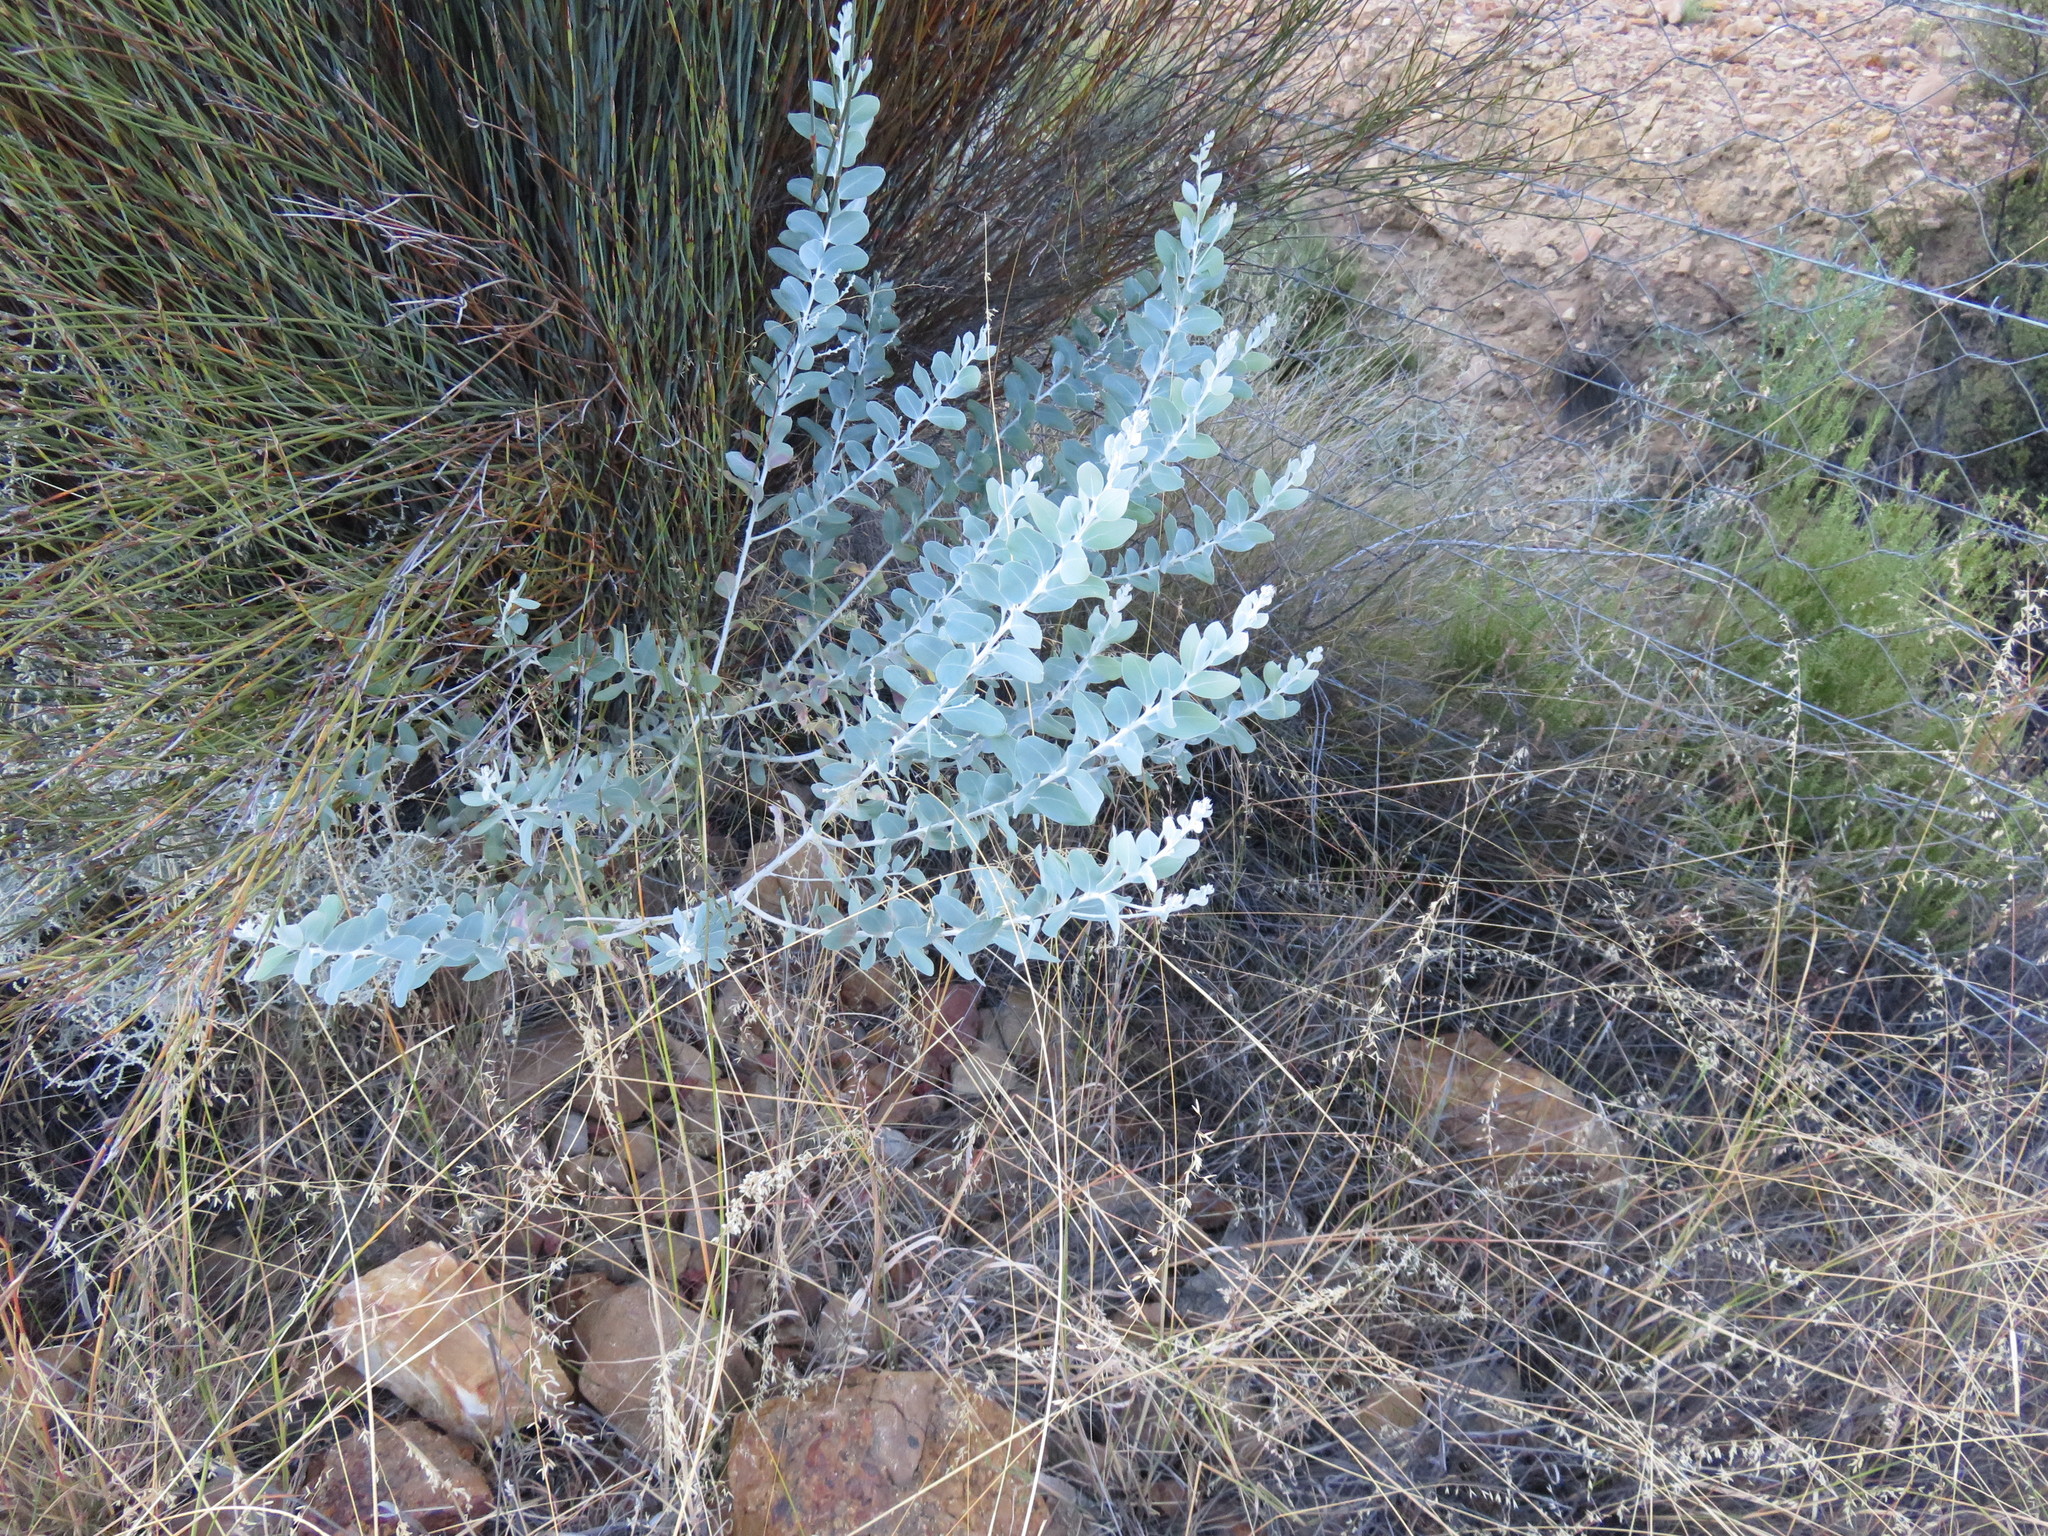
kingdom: Plantae
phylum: Tracheophyta
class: Magnoliopsida
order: Fabales
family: Fabaceae
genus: Acacia
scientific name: Acacia podalyriifolia
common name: Pearl wattle
